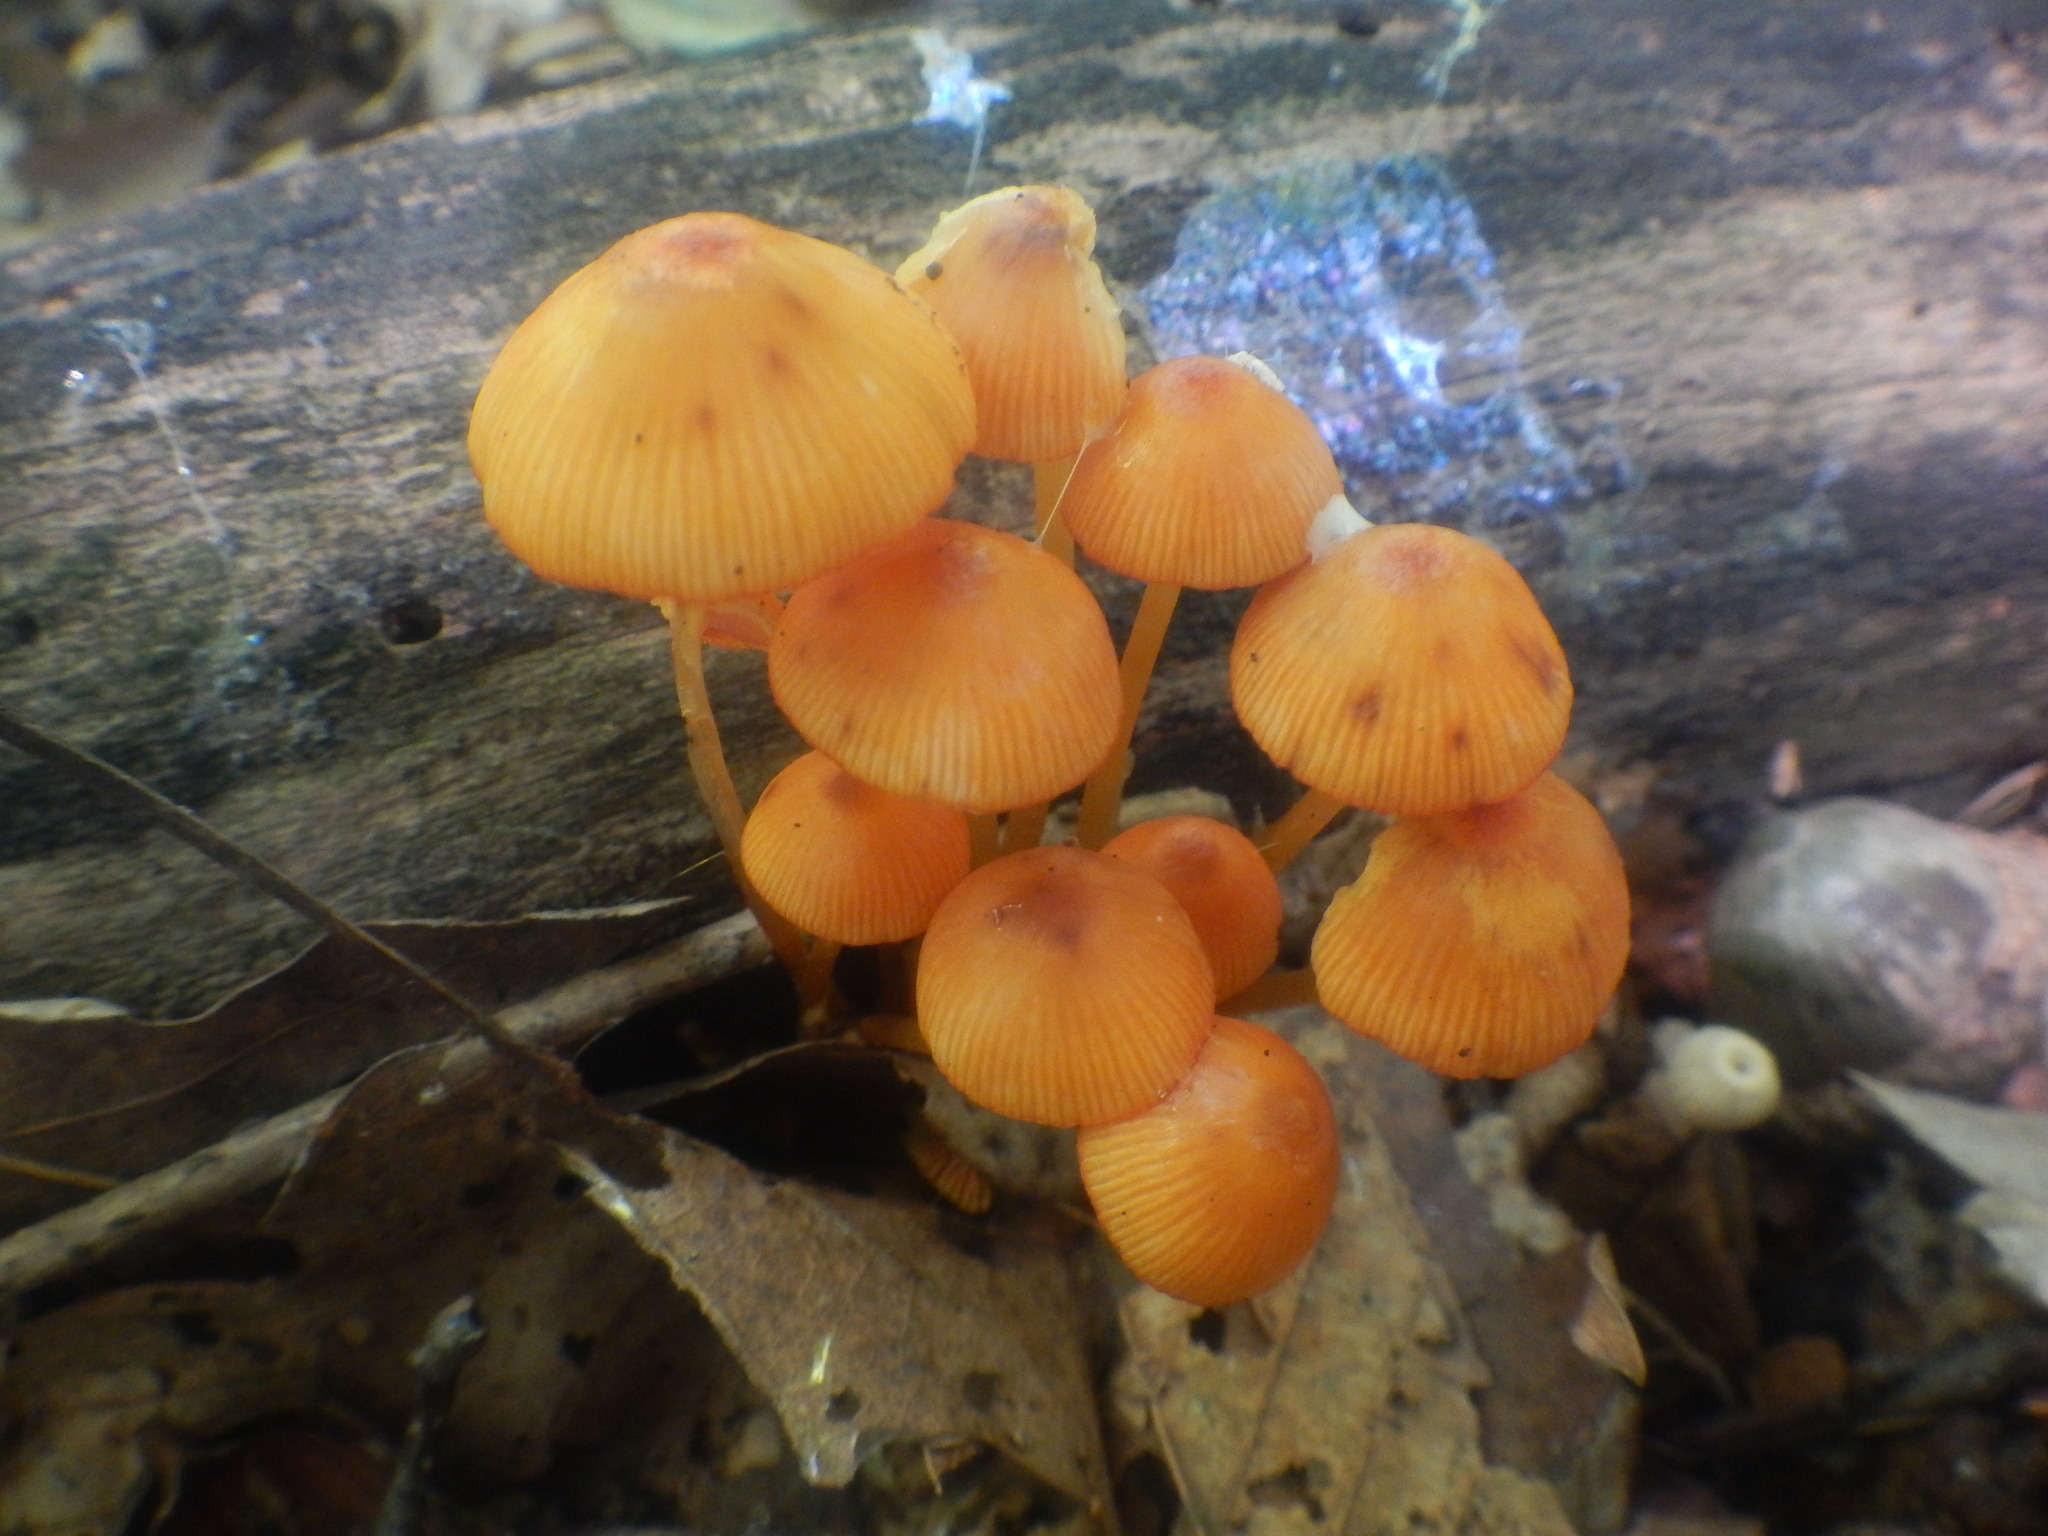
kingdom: Fungi
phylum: Basidiomycota
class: Agaricomycetes
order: Agaricales
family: Mycenaceae
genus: Mycena
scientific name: Mycena leaiana
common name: Orange mycena
